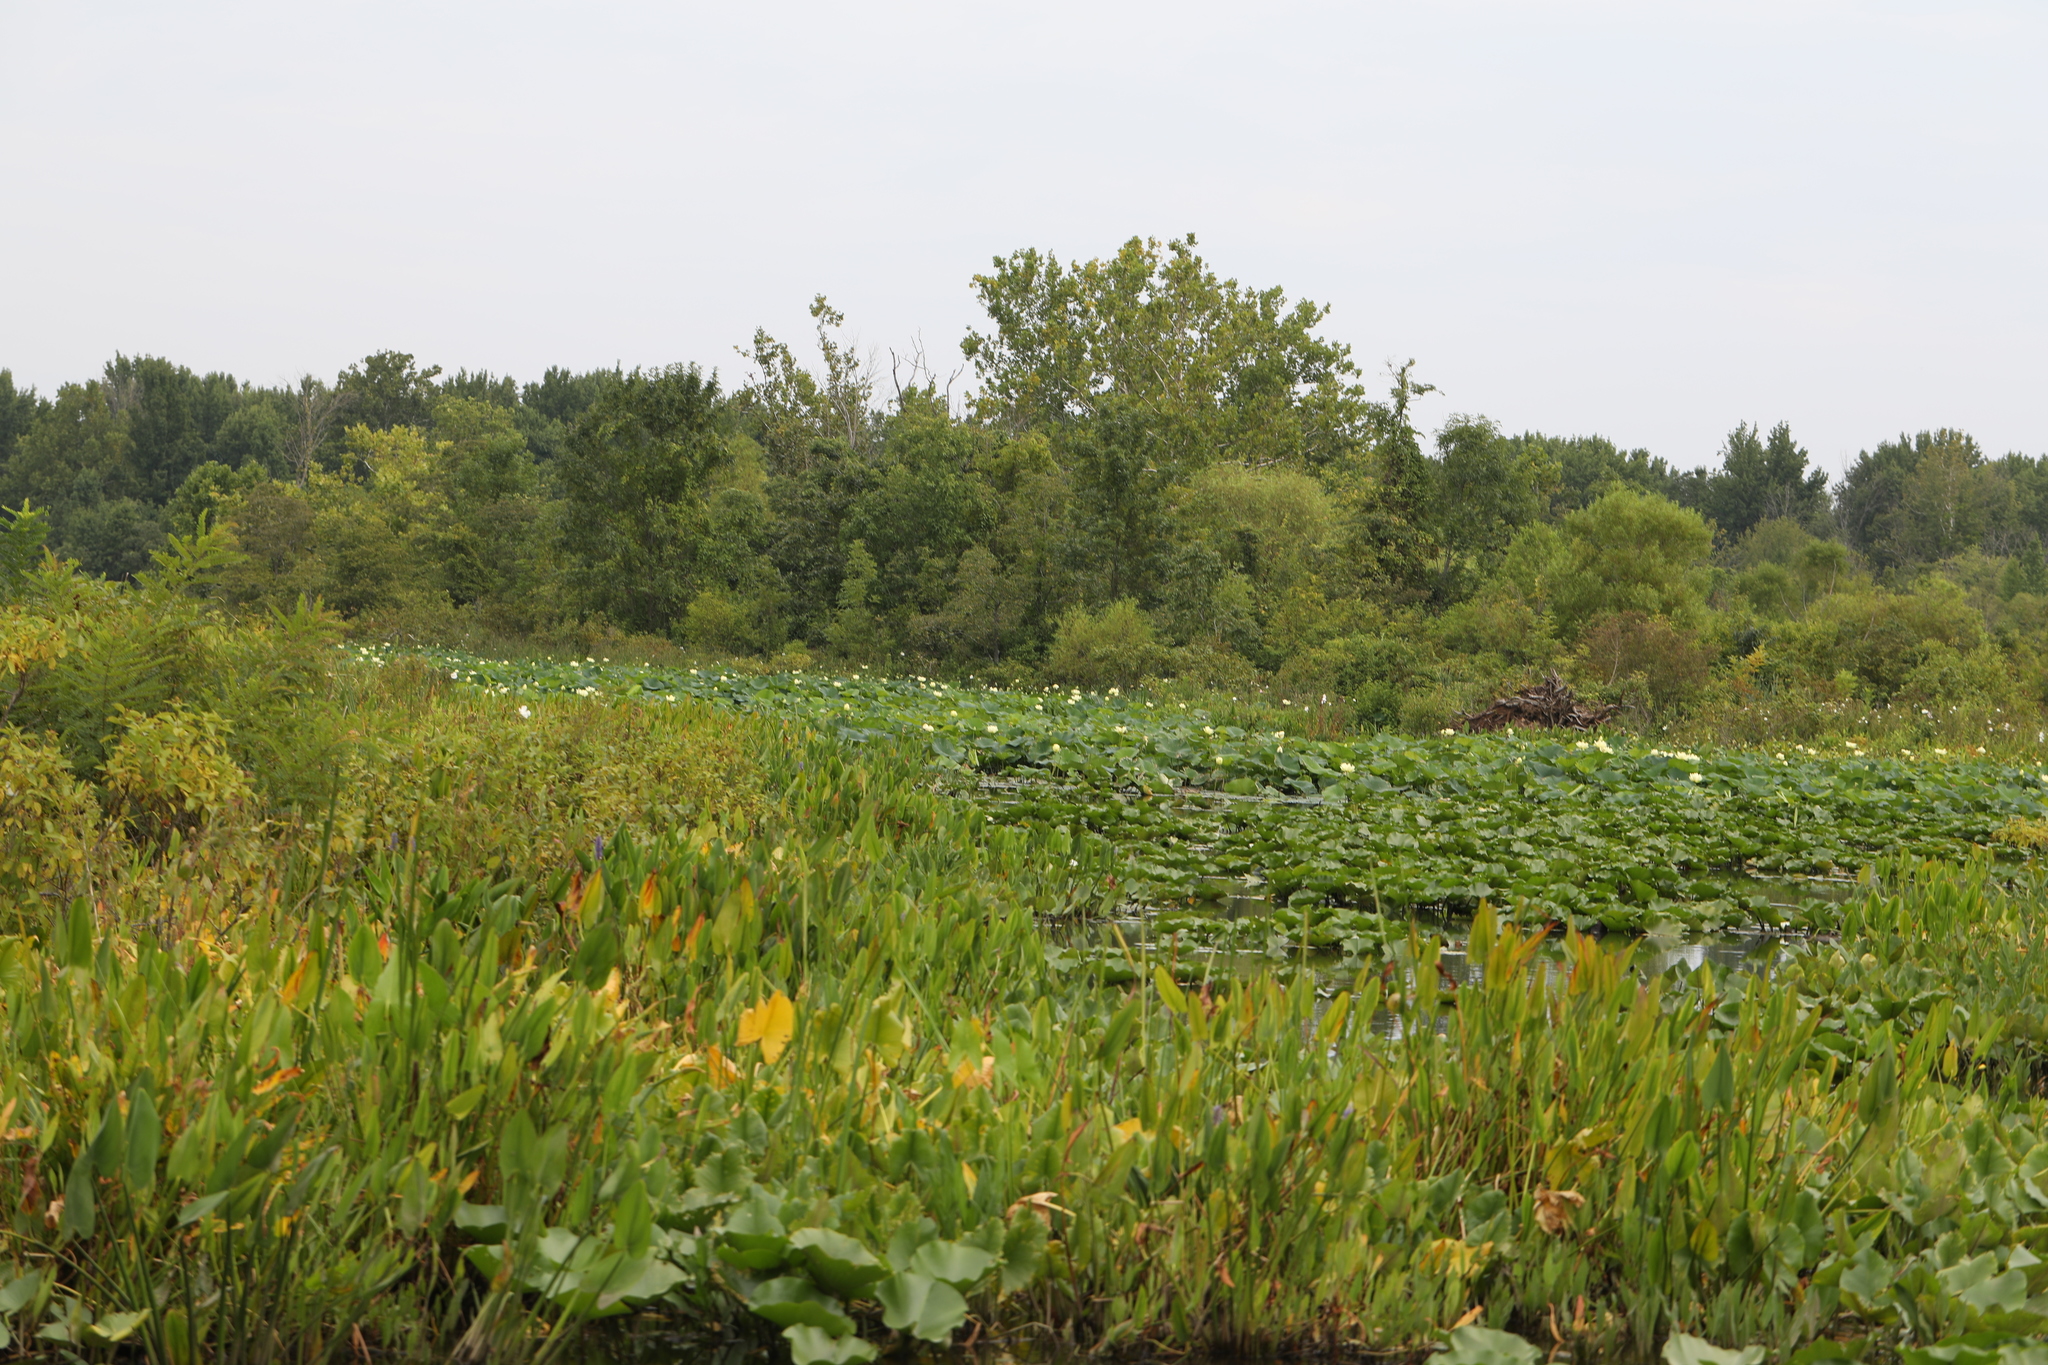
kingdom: Plantae
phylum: Tracheophyta
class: Magnoliopsida
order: Proteales
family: Nelumbonaceae
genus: Nelumbo
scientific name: Nelumbo lutea
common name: American lotus
